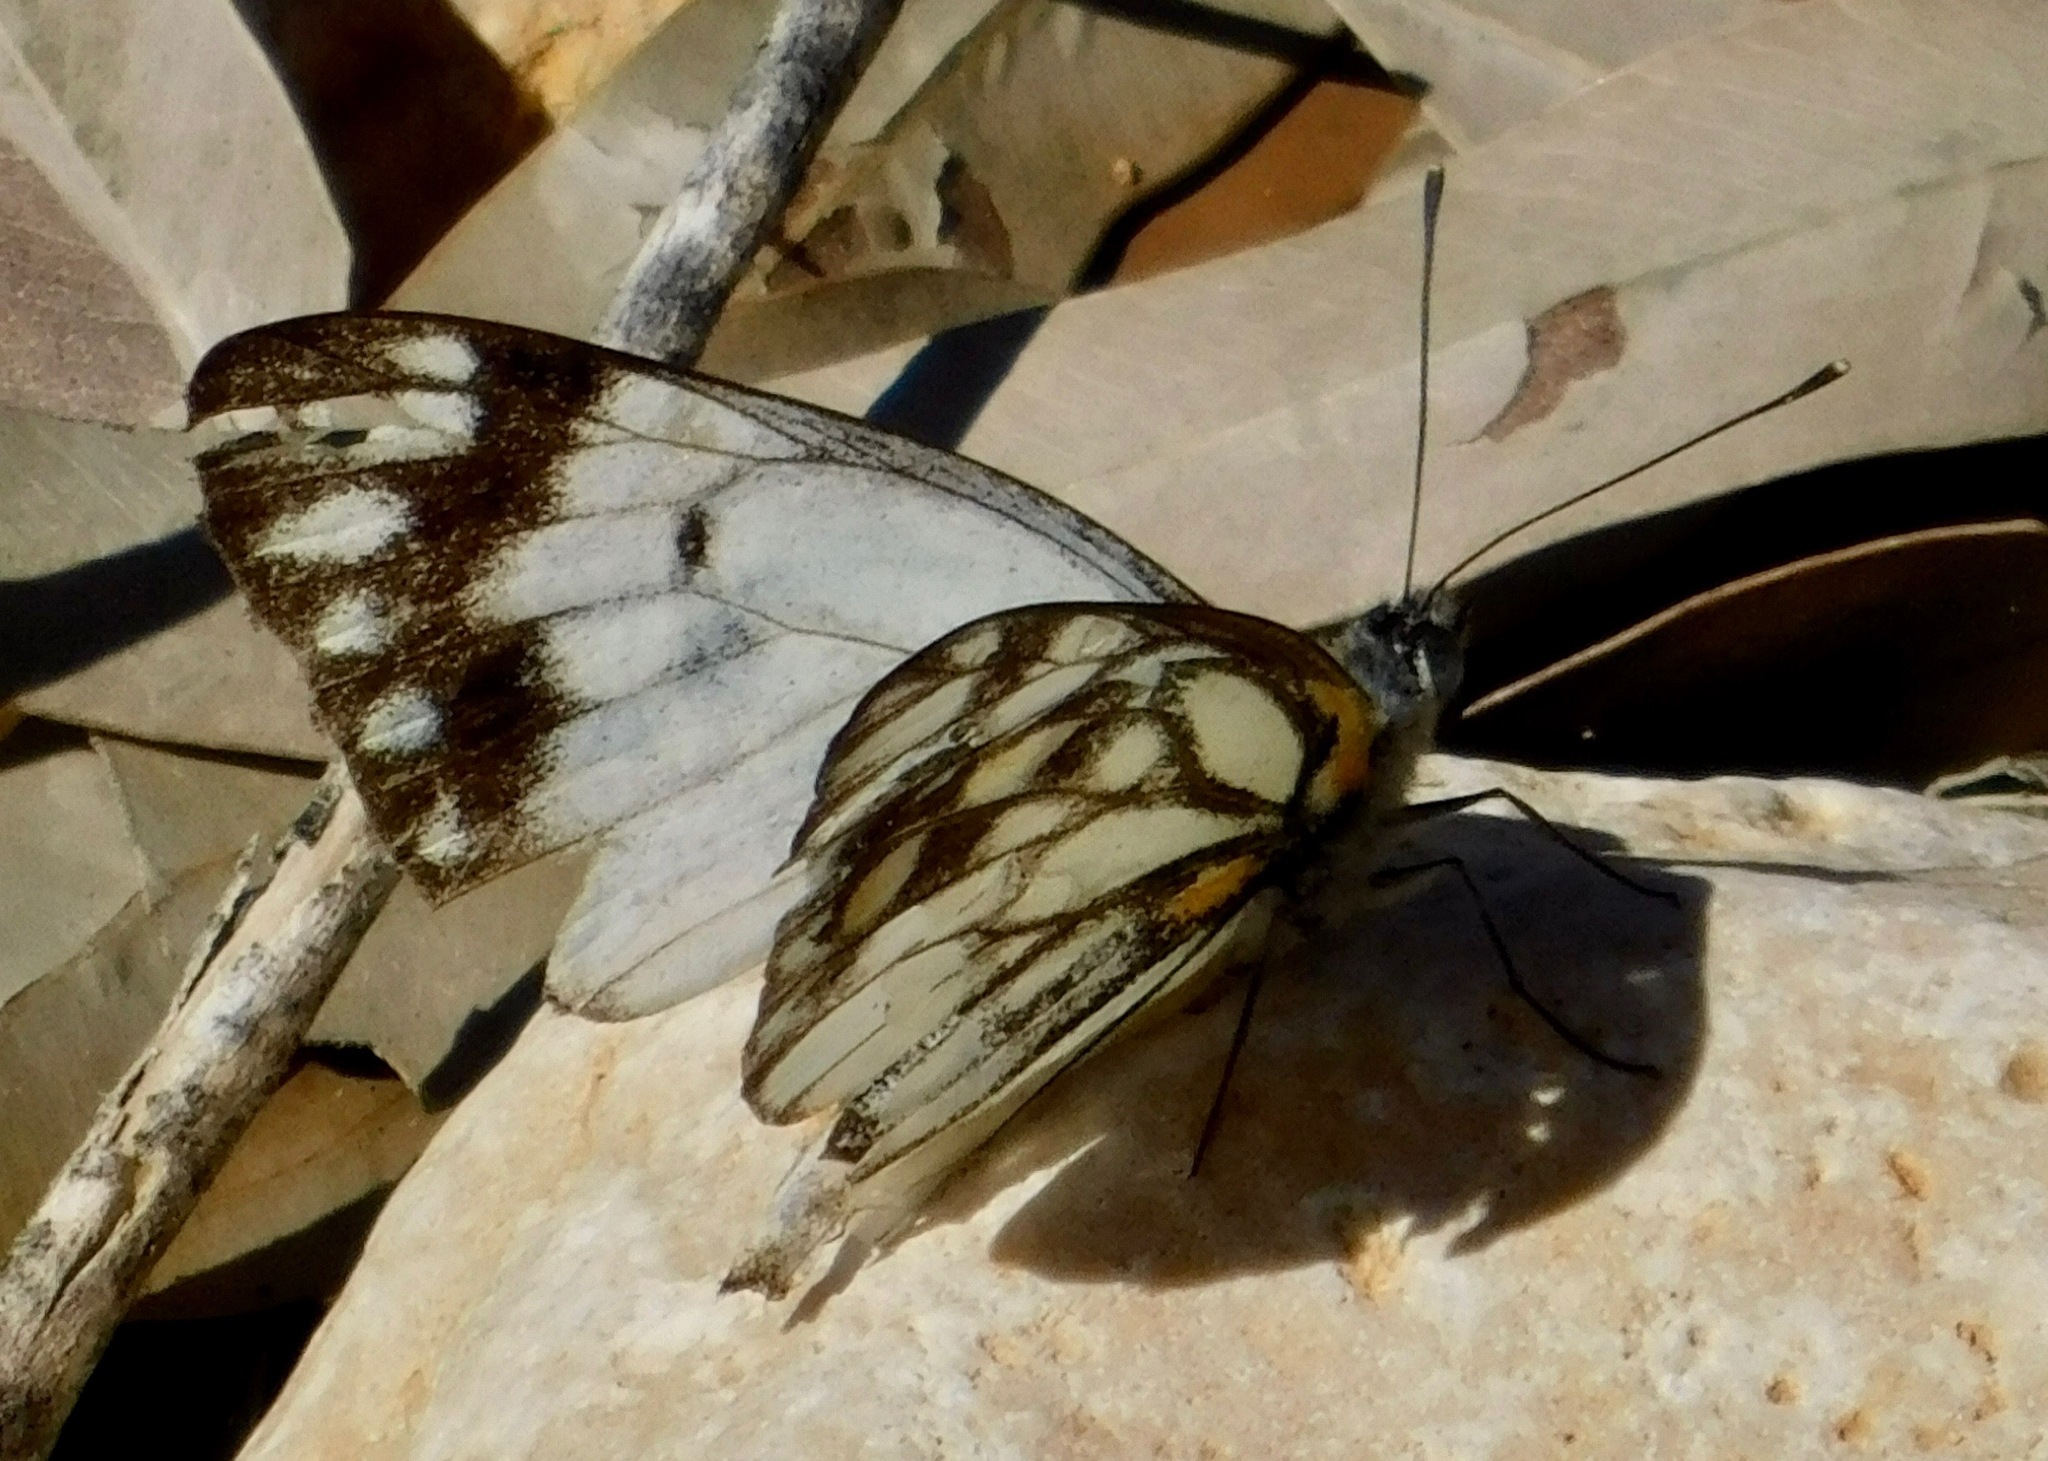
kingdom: Animalia
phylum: Arthropoda
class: Insecta
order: Lepidoptera
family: Pieridae
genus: Belenois
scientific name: Belenois java
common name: Caper white
